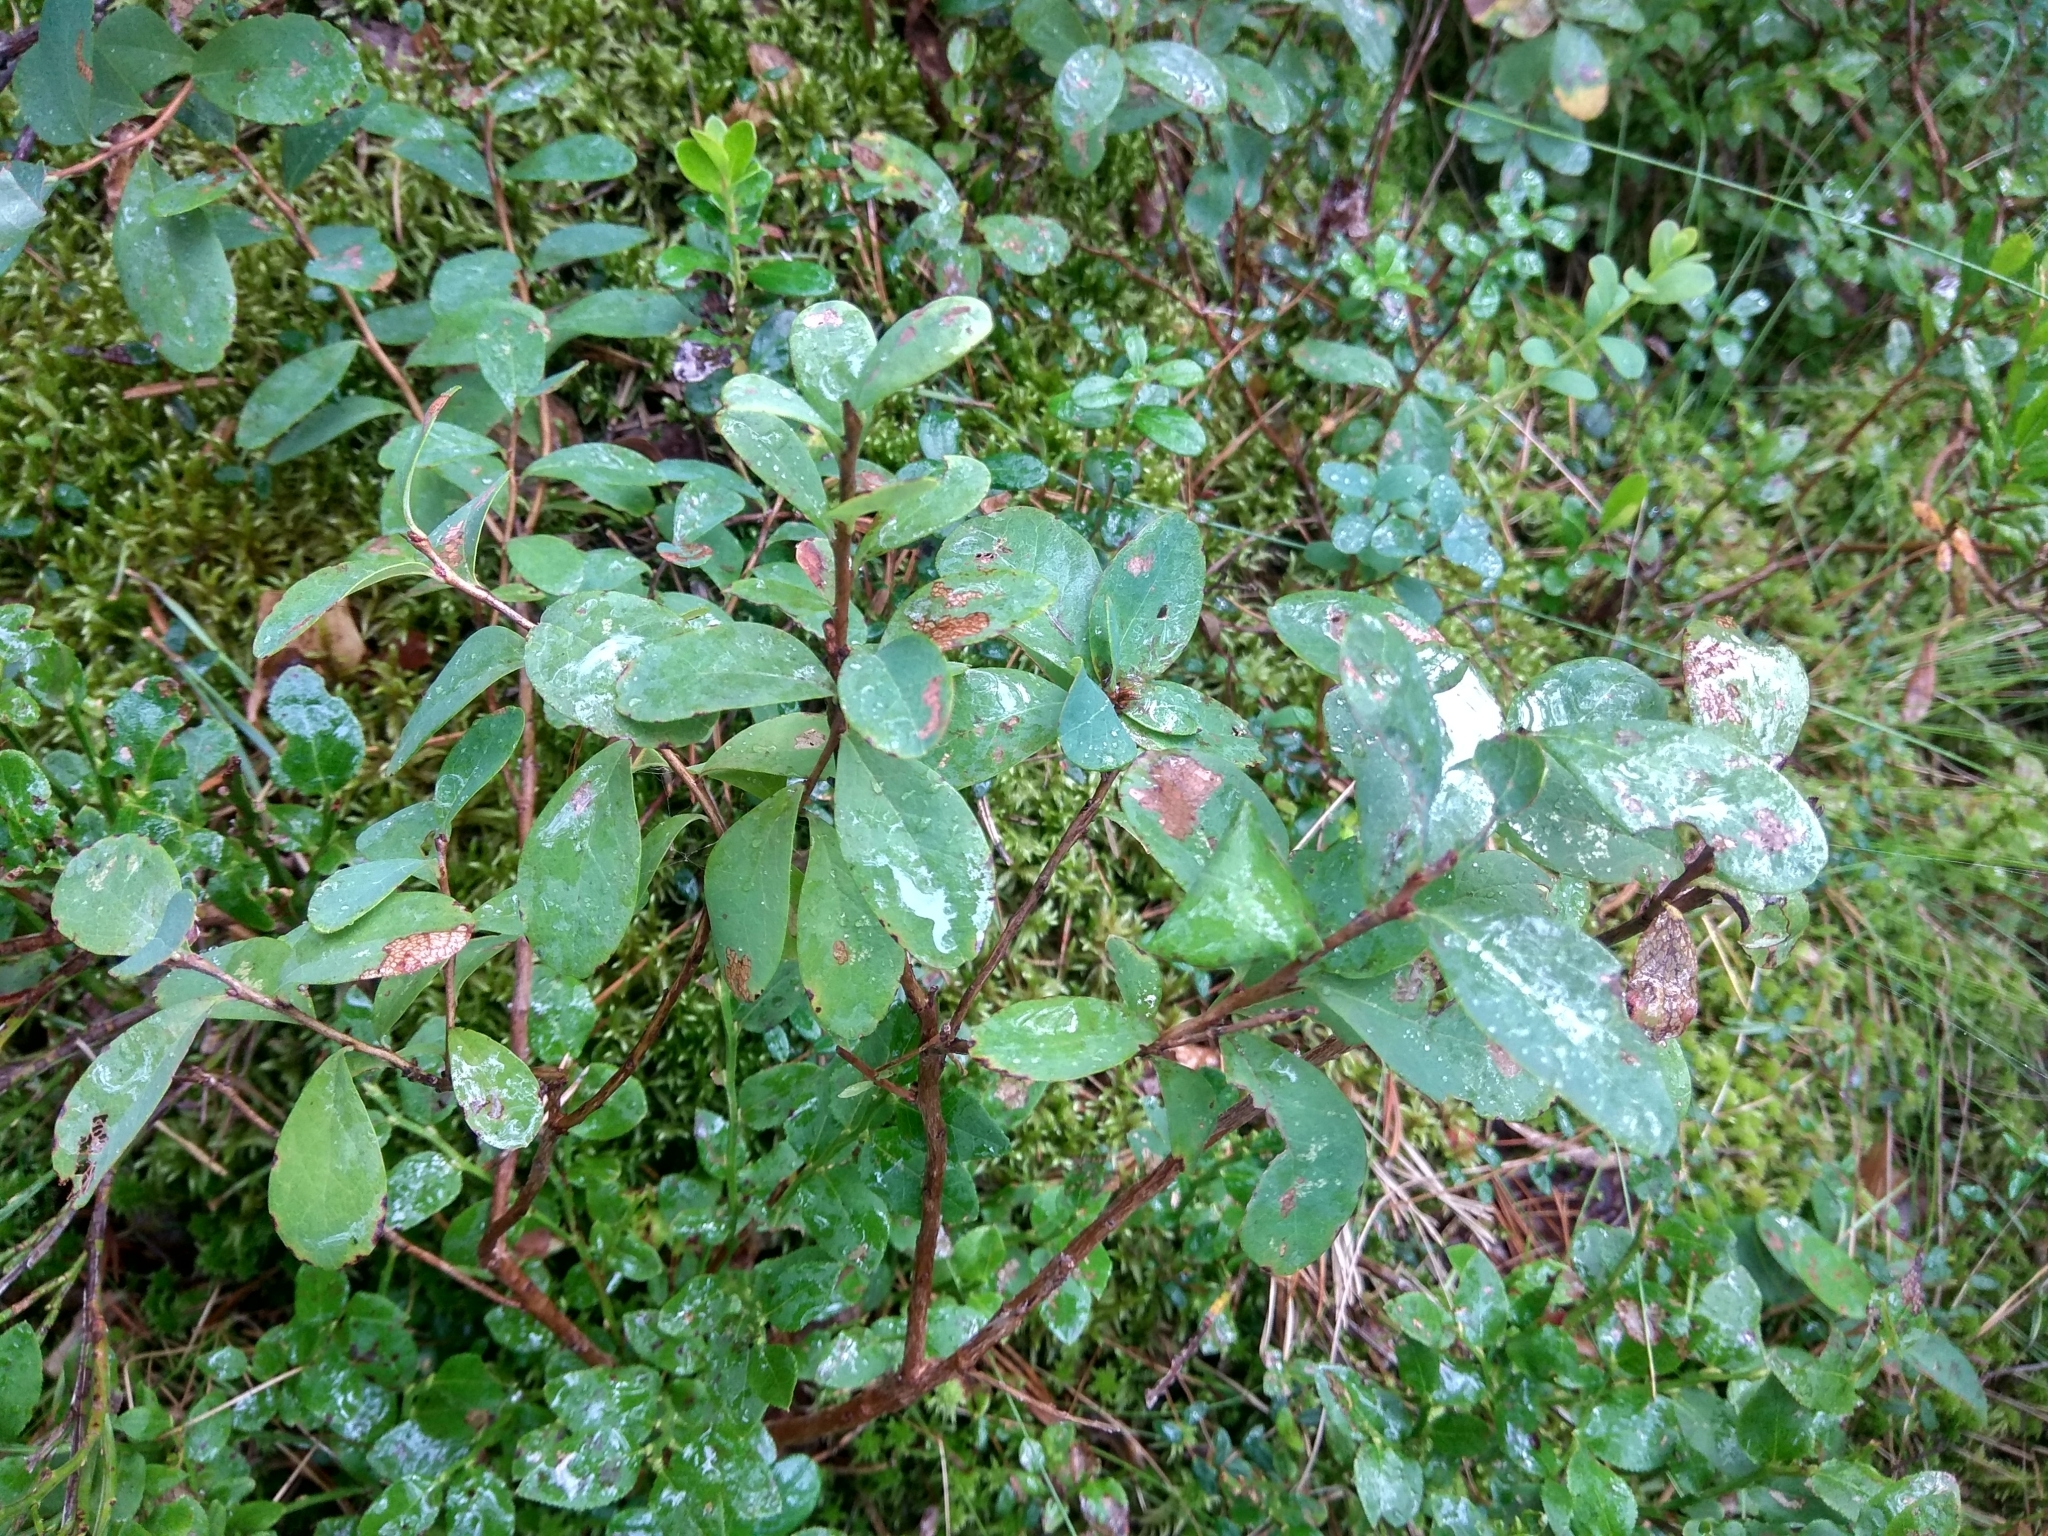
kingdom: Plantae
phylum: Tracheophyta
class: Magnoliopsida
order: Ericales
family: Ericaceae
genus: Vaccinium
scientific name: Vaccinium uliginosum
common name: Bog bilberry
